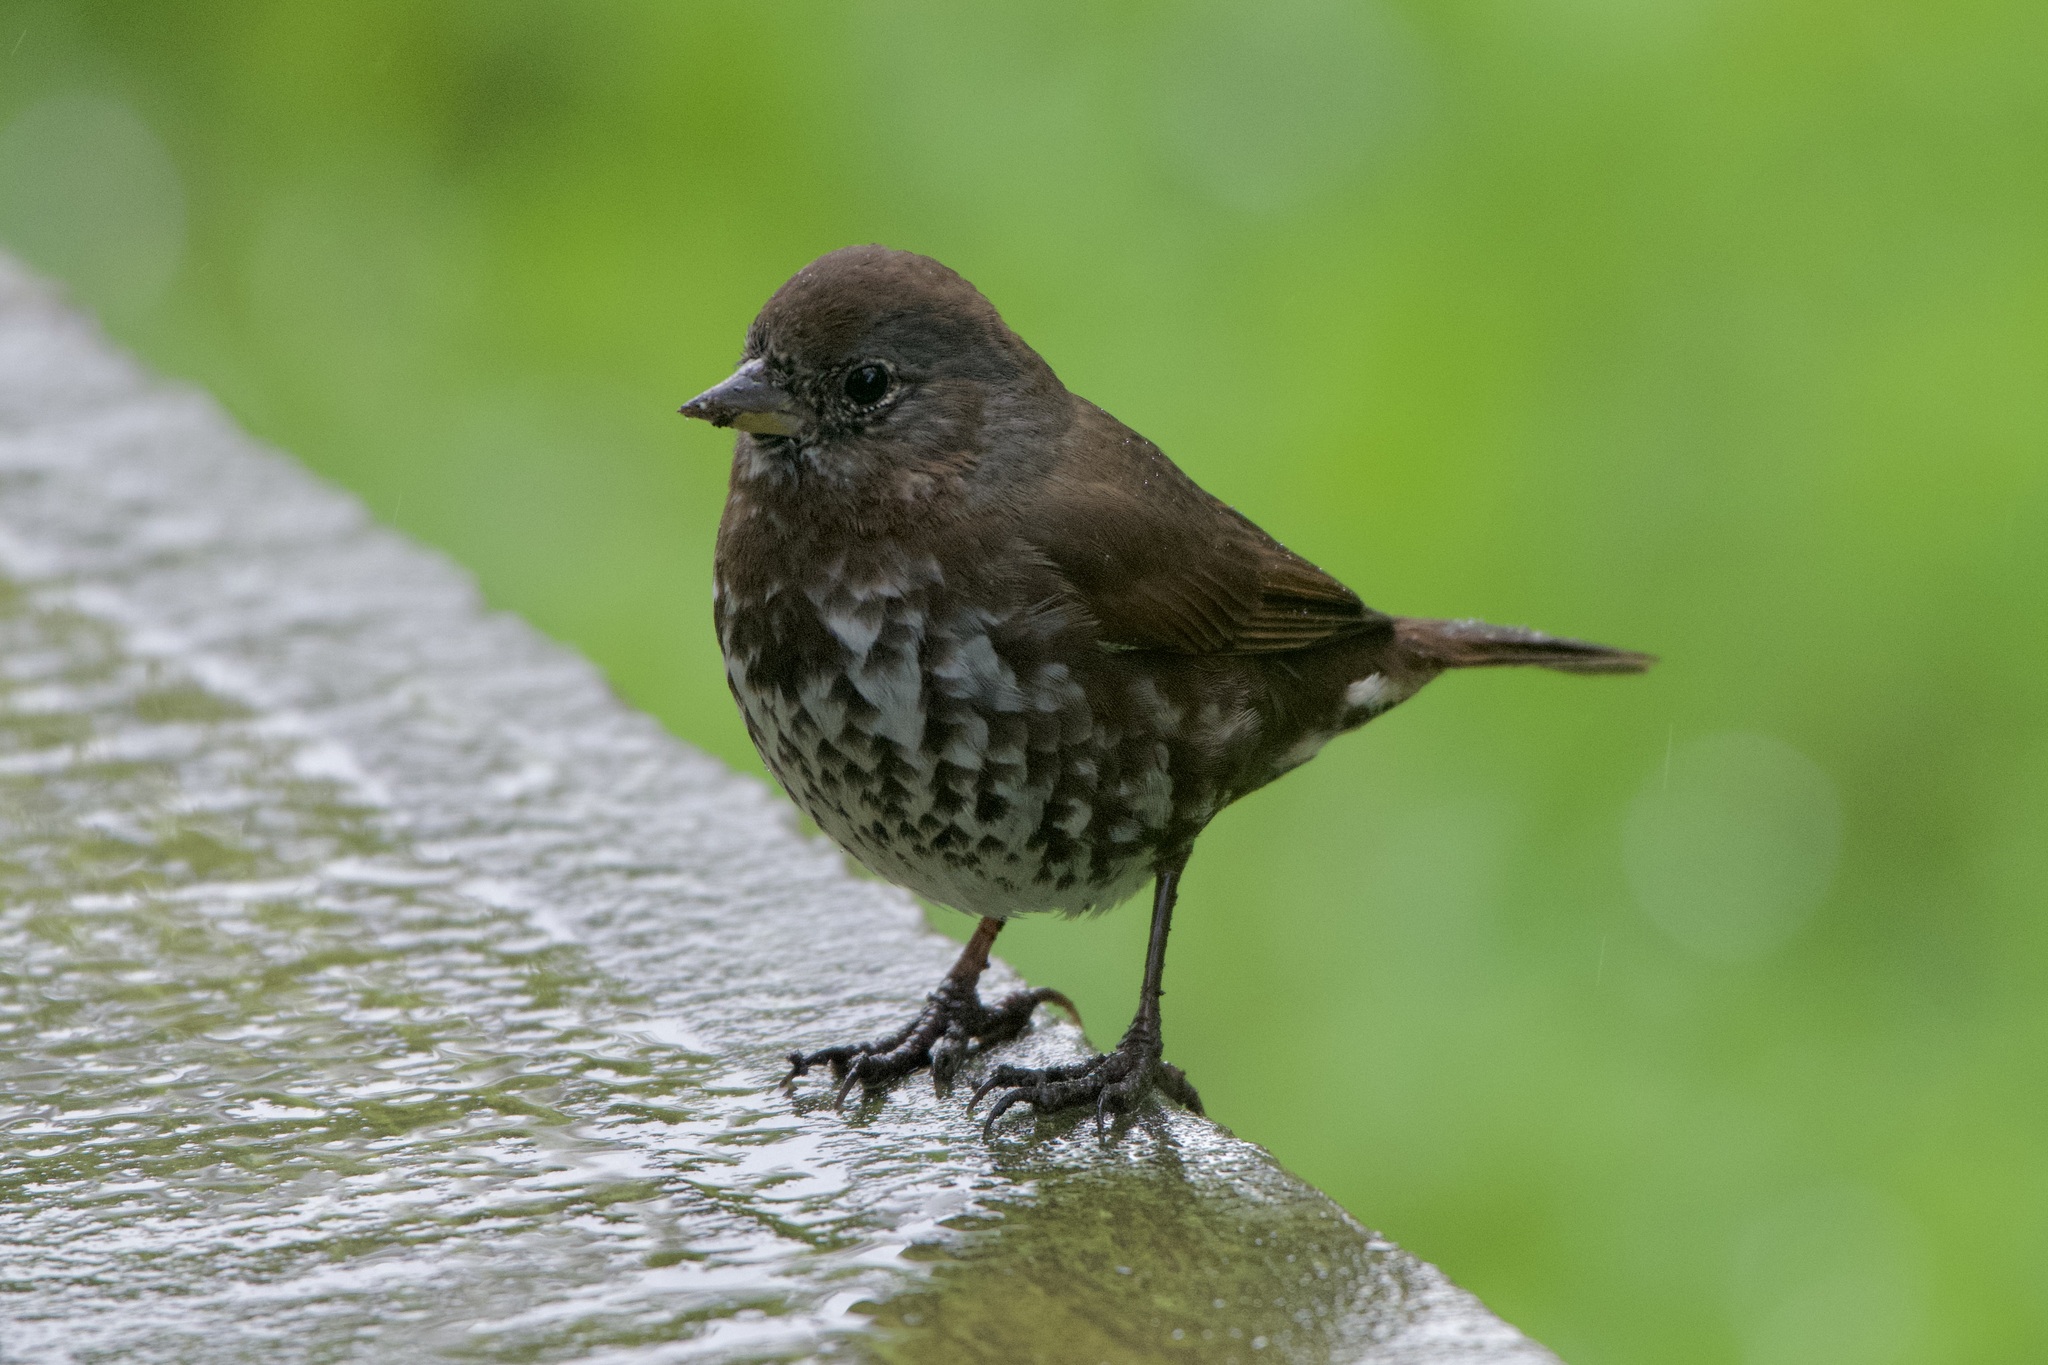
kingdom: Animalia
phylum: Chordata
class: Aves
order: Passeriformes
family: Passerellidae
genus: Passerella
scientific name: Passerella iliaca
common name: Fox sparrow
